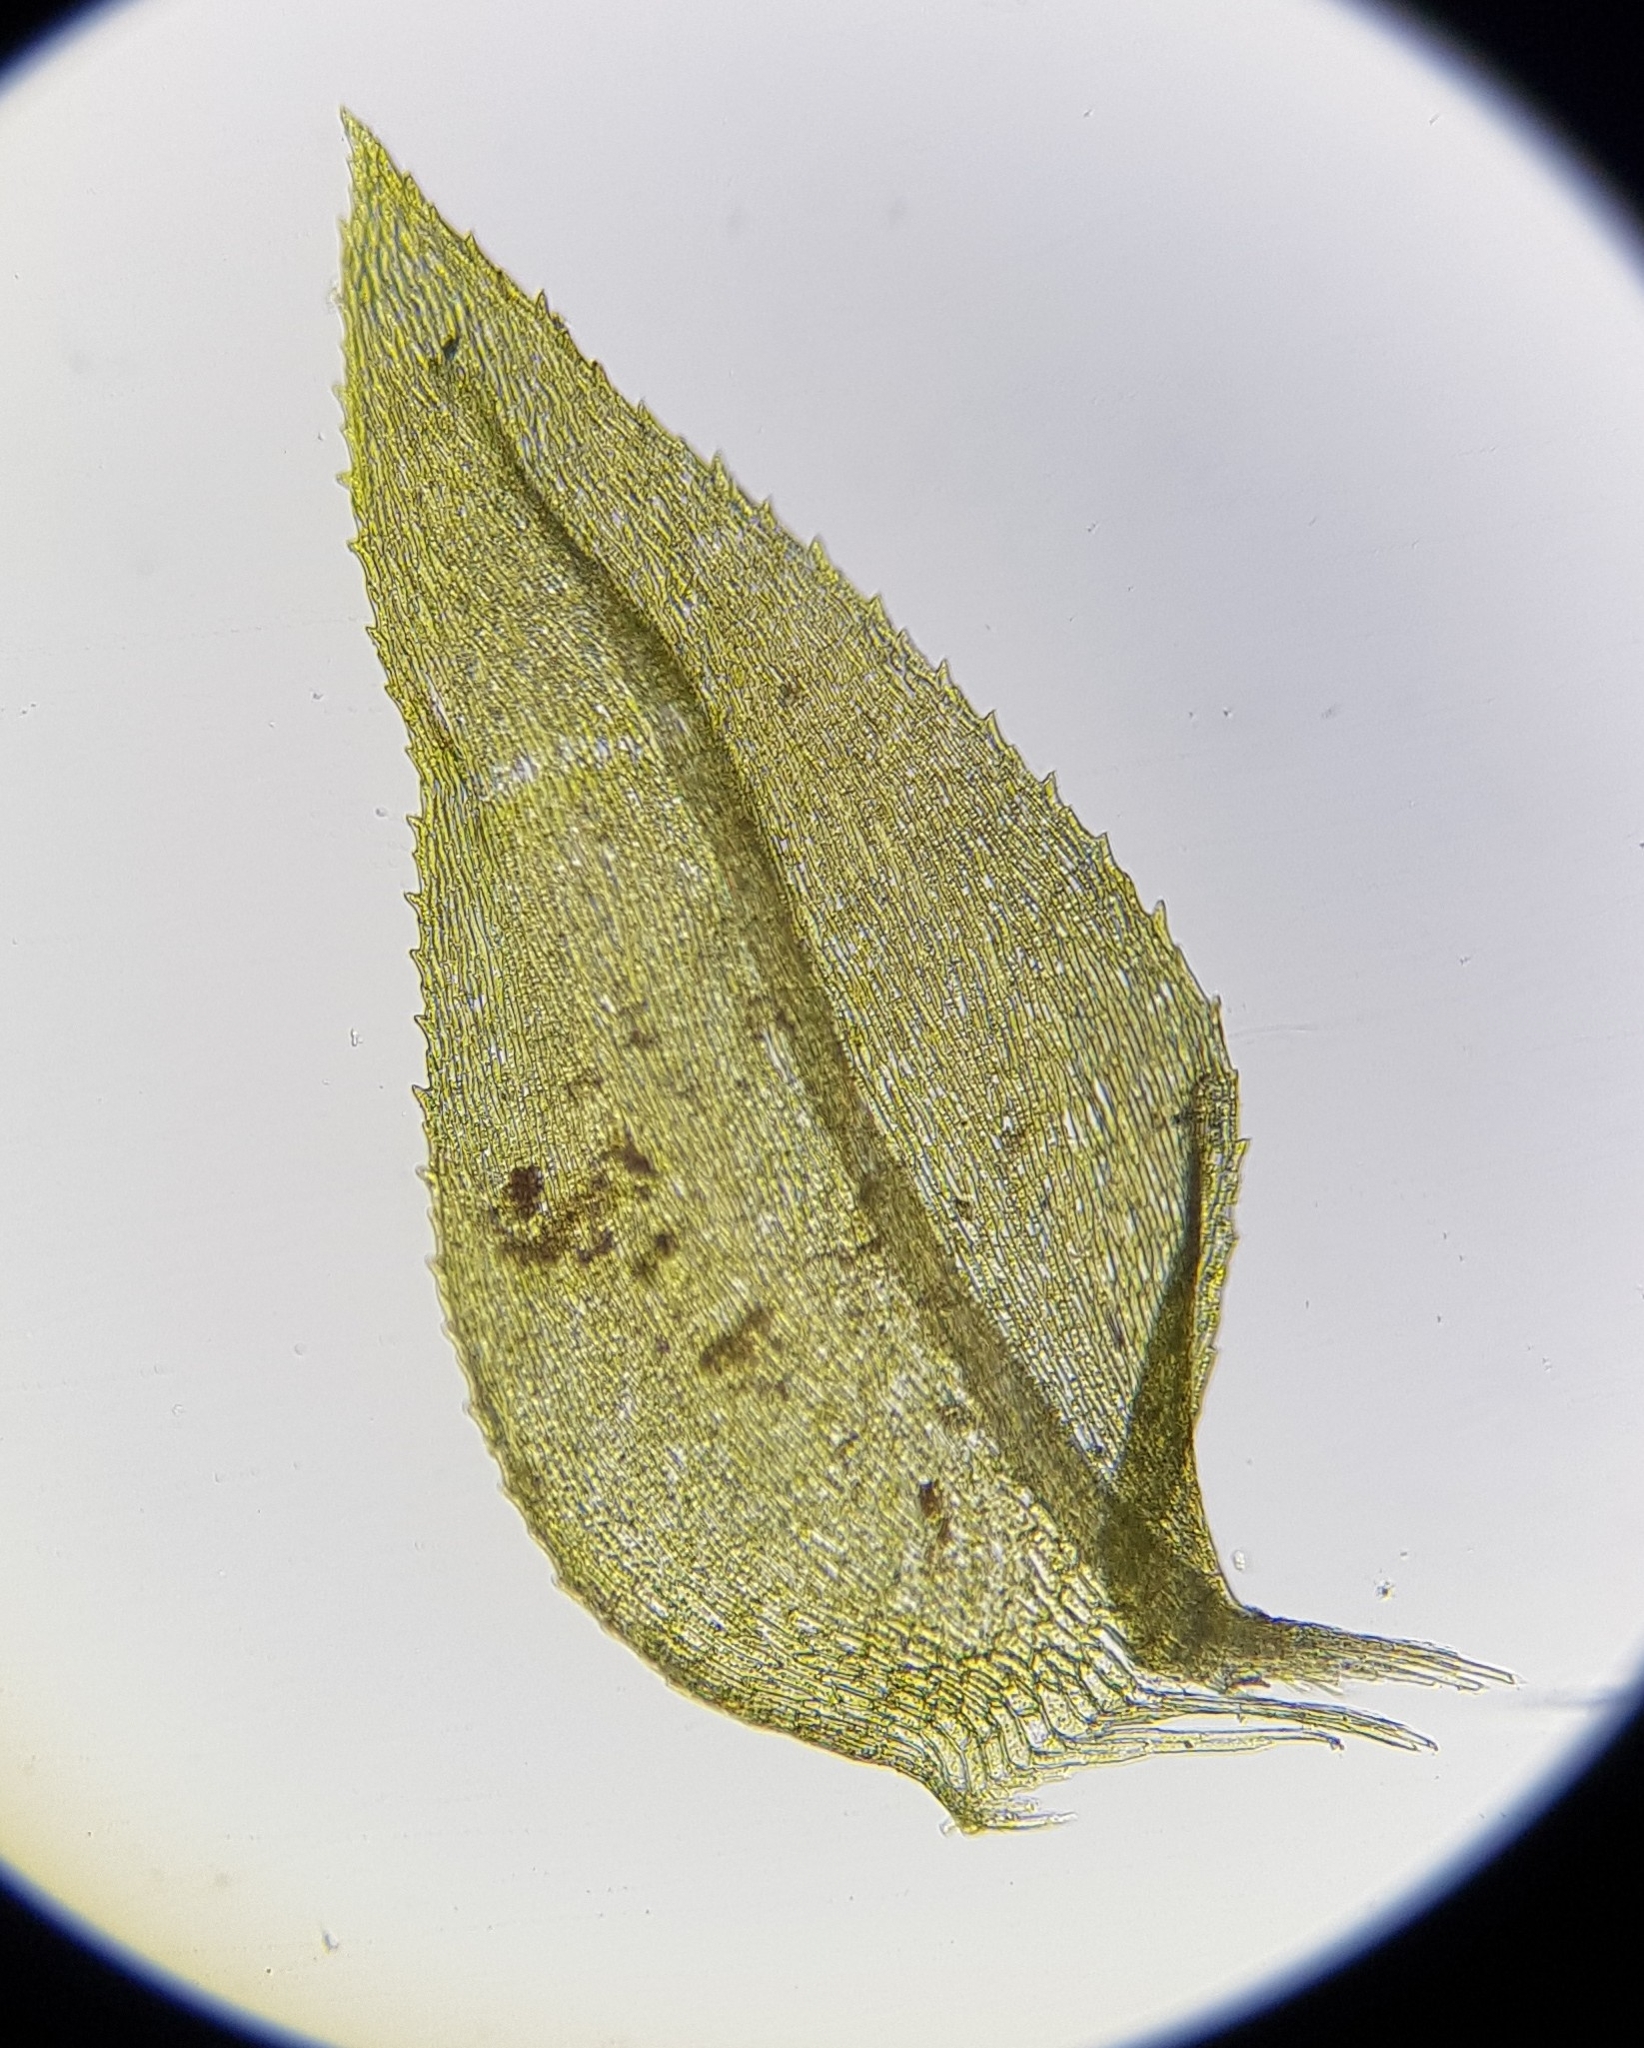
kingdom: Plantae
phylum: Bryophyta
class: Bryopsida
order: Hypnales
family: Brachytheciaceae
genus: Oxyrrhynchium
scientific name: Oxyrrhynchium hians
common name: Spreading beaked moss
